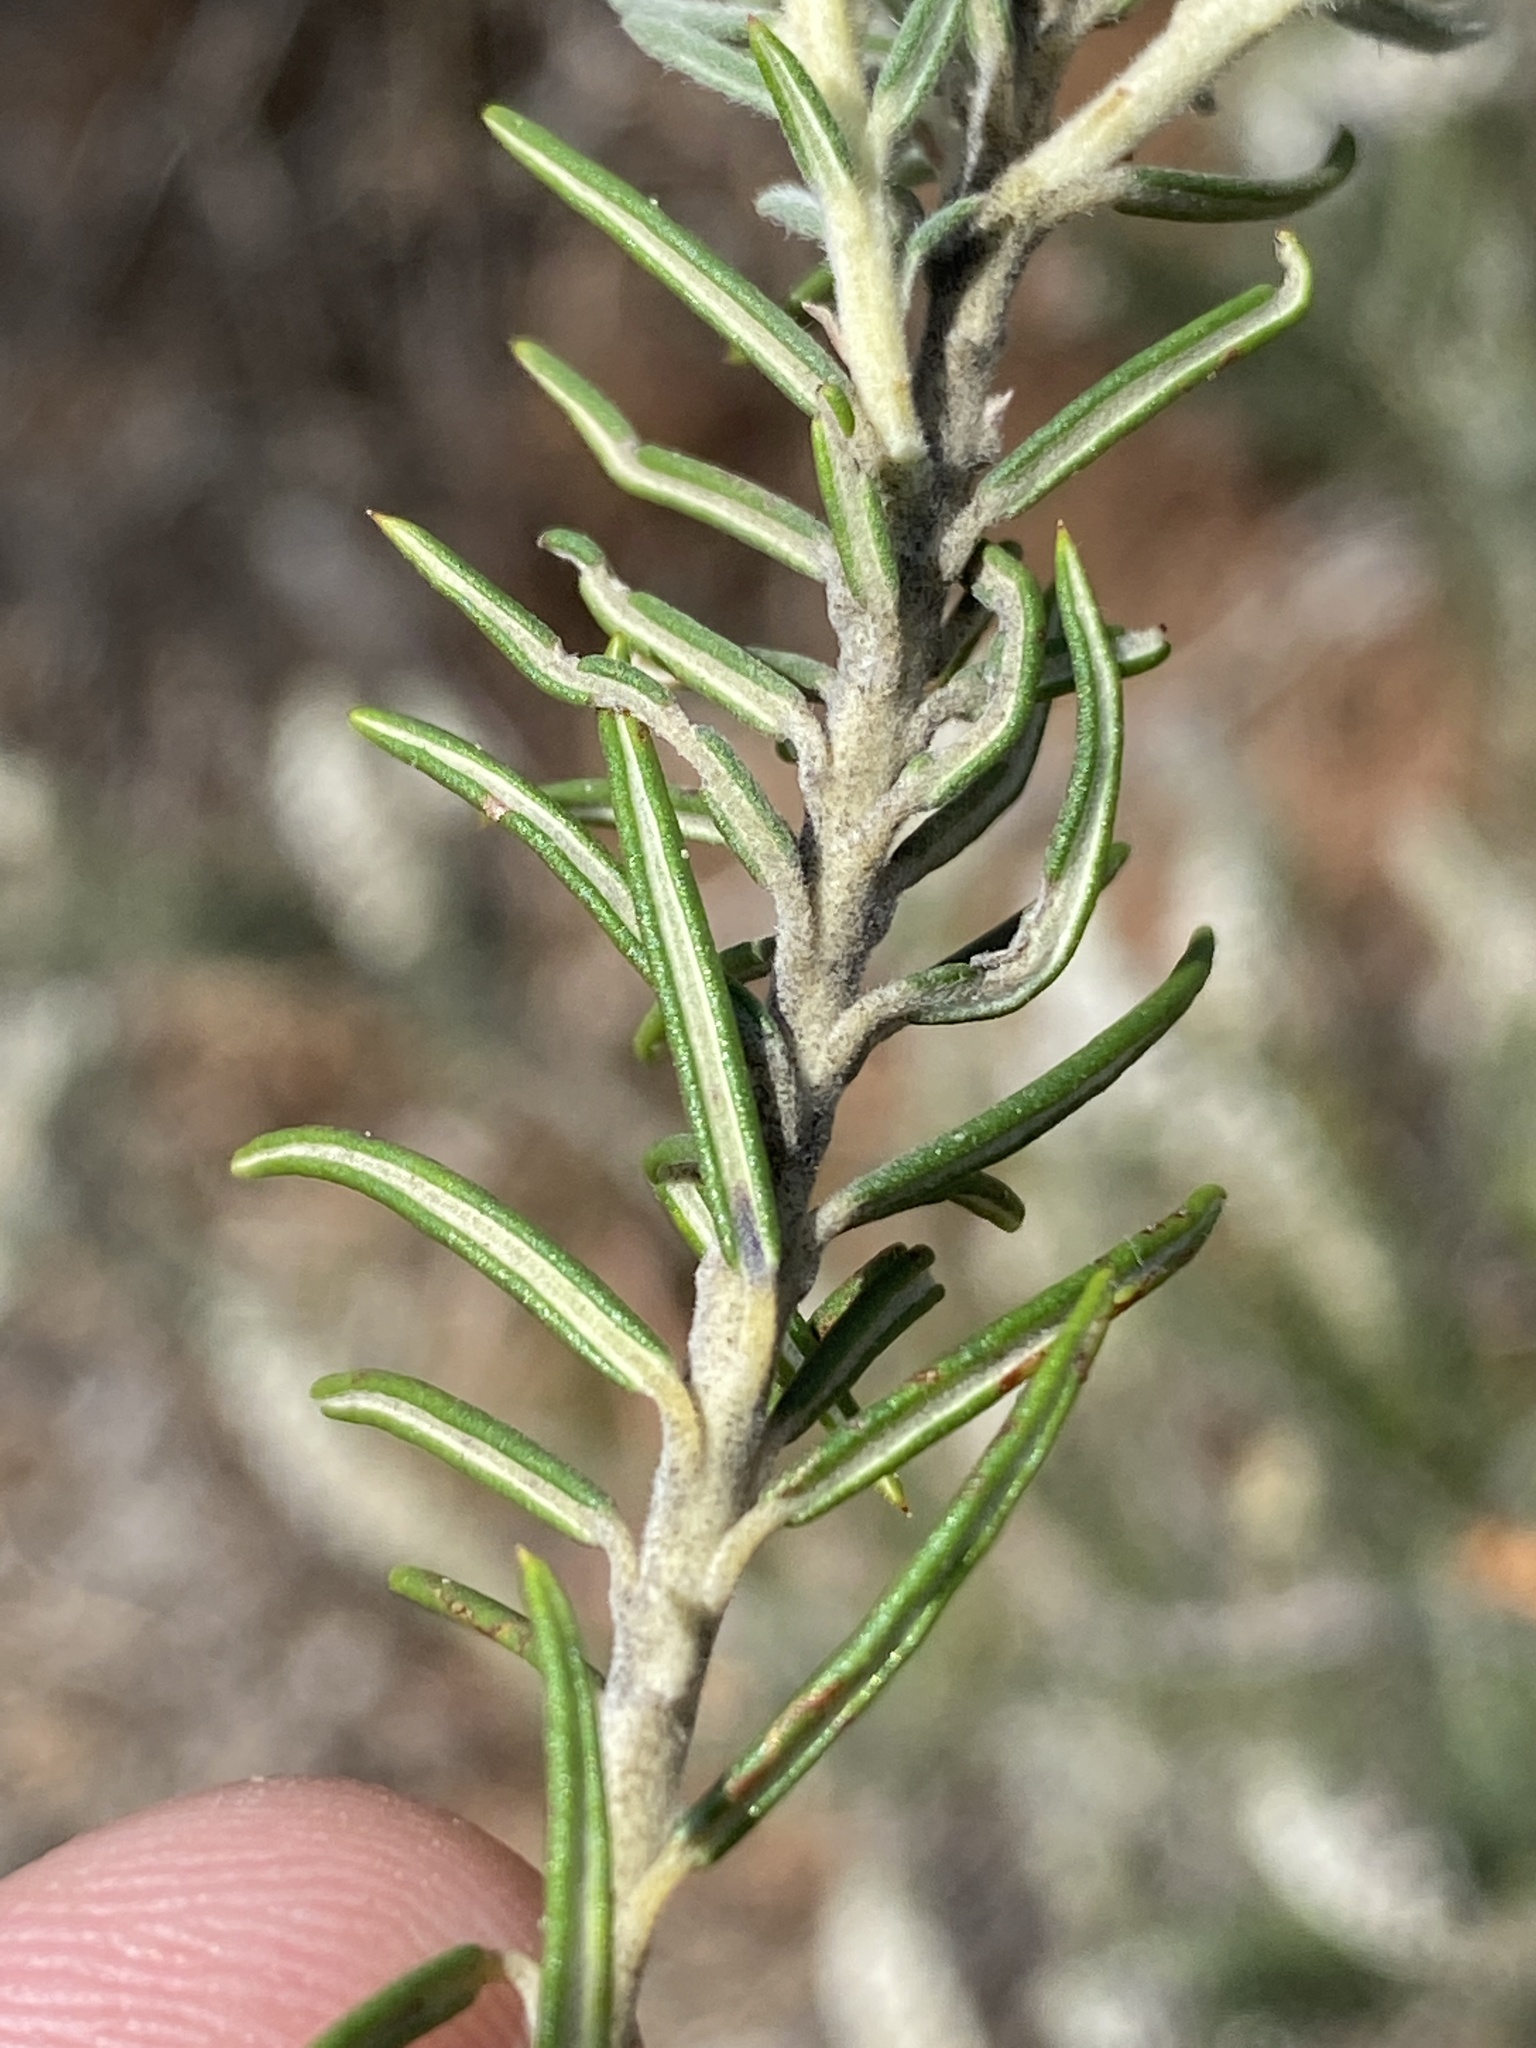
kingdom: Plantae
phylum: Tracheophyta
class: Magnoliopsida
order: Rosales
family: Rhamnaceae
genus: Phylica
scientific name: Phylica villosa
